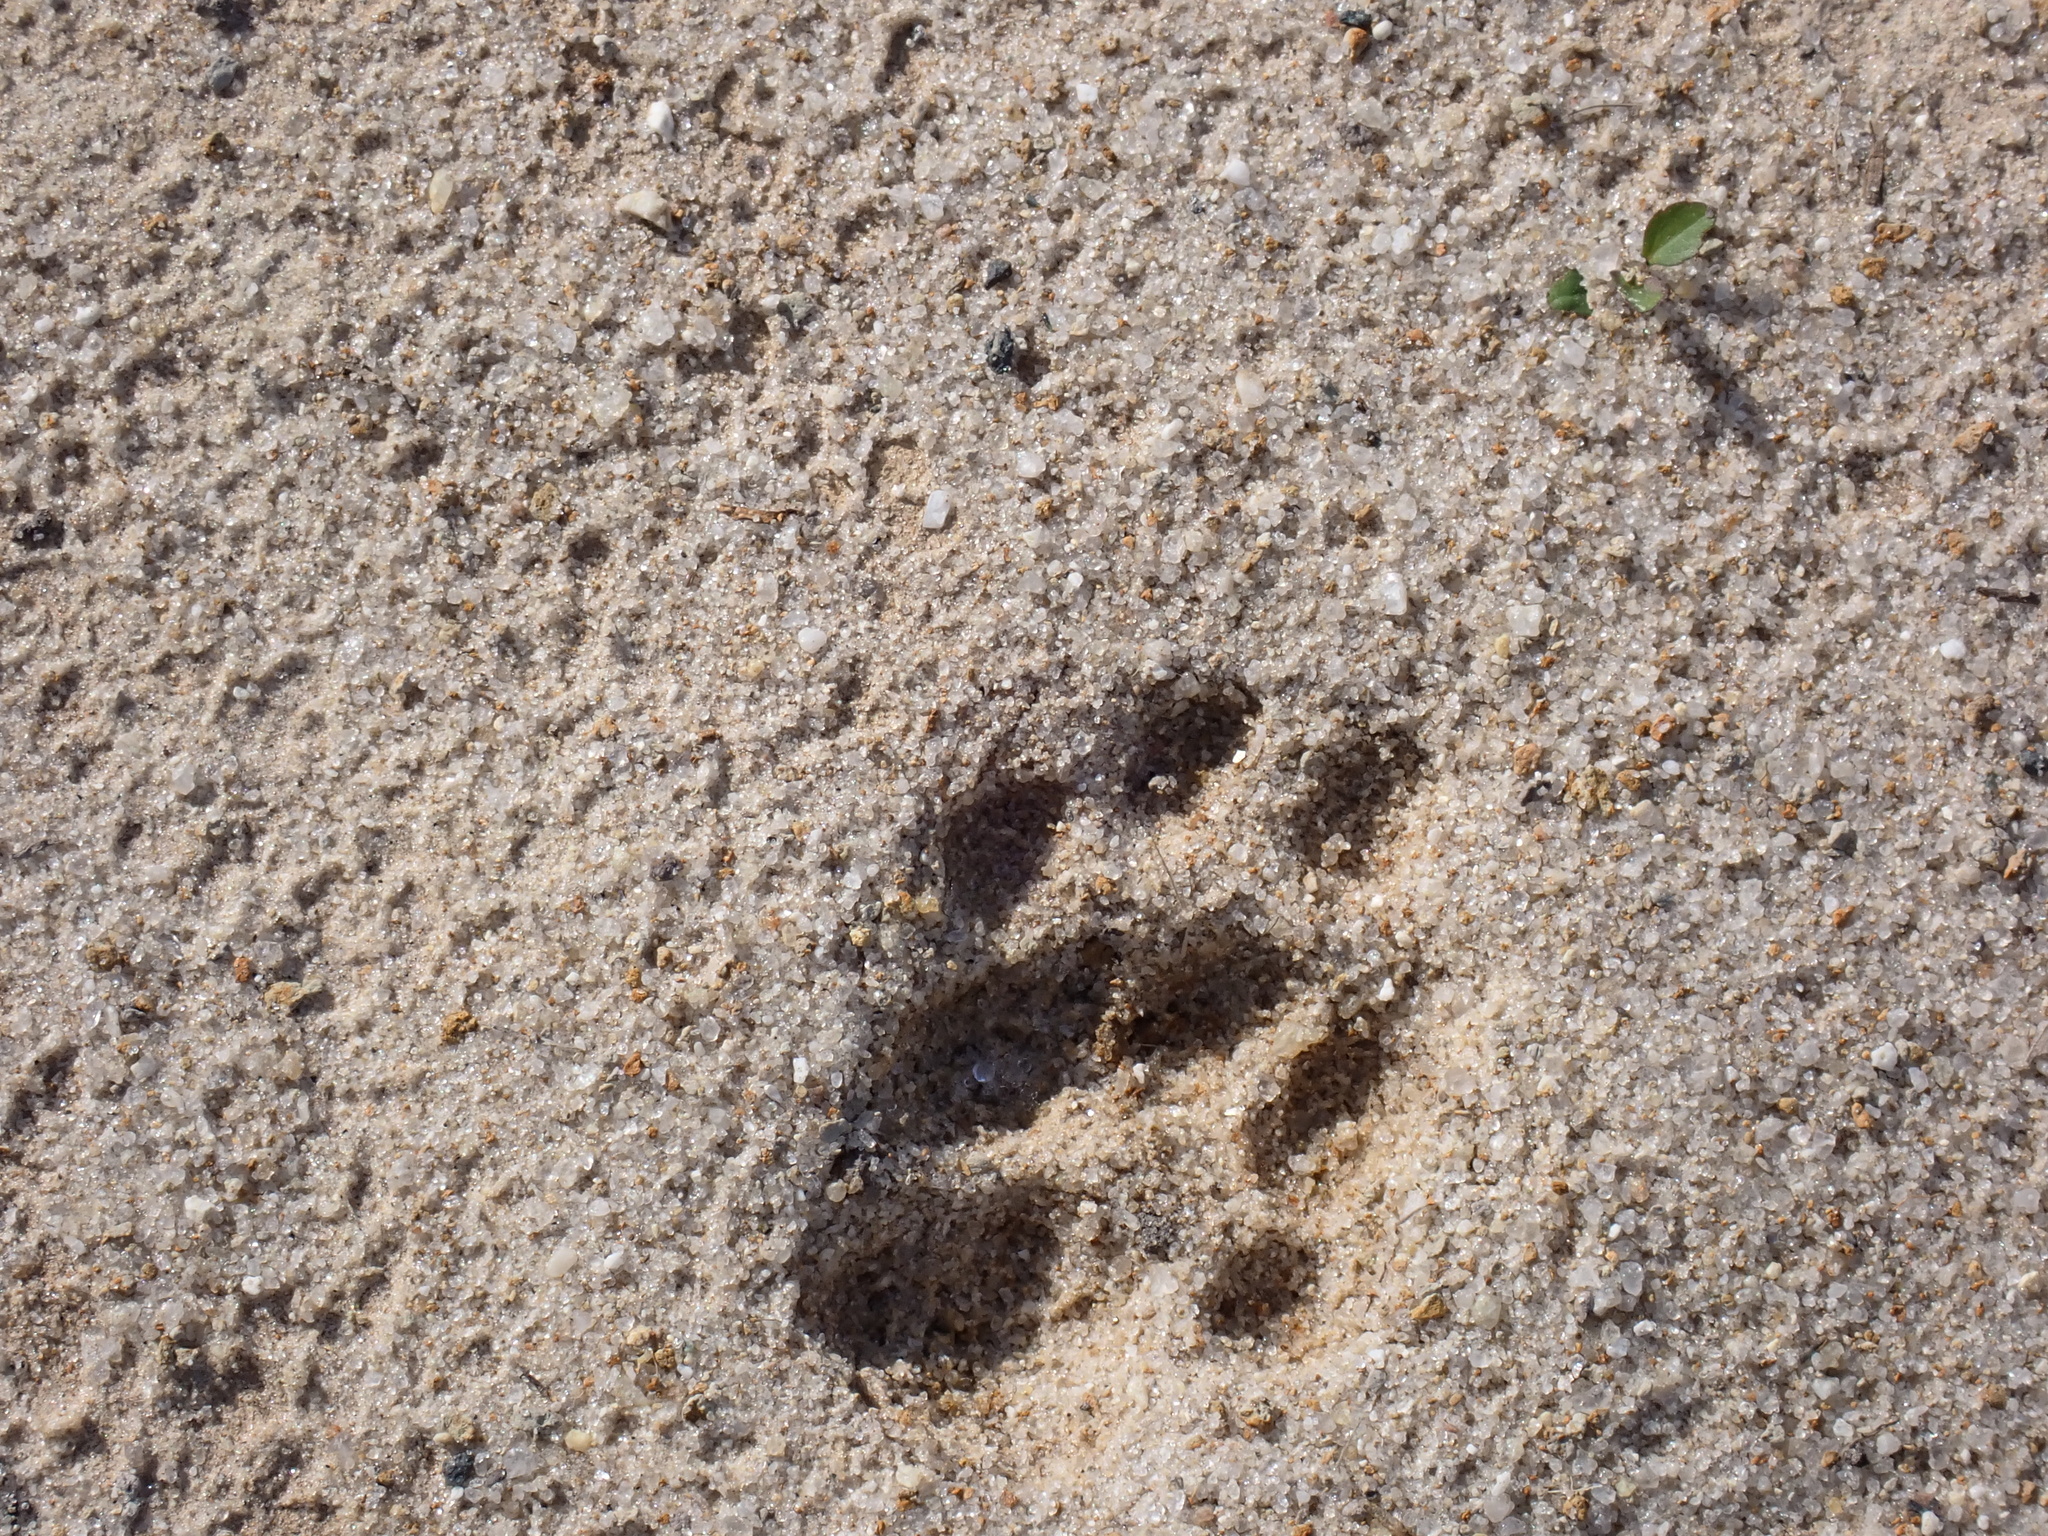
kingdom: Animalia
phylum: Chordata
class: Mammalia
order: Carnivora
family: Felidae
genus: Lynx
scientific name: Lynx rufus
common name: Bobcat
